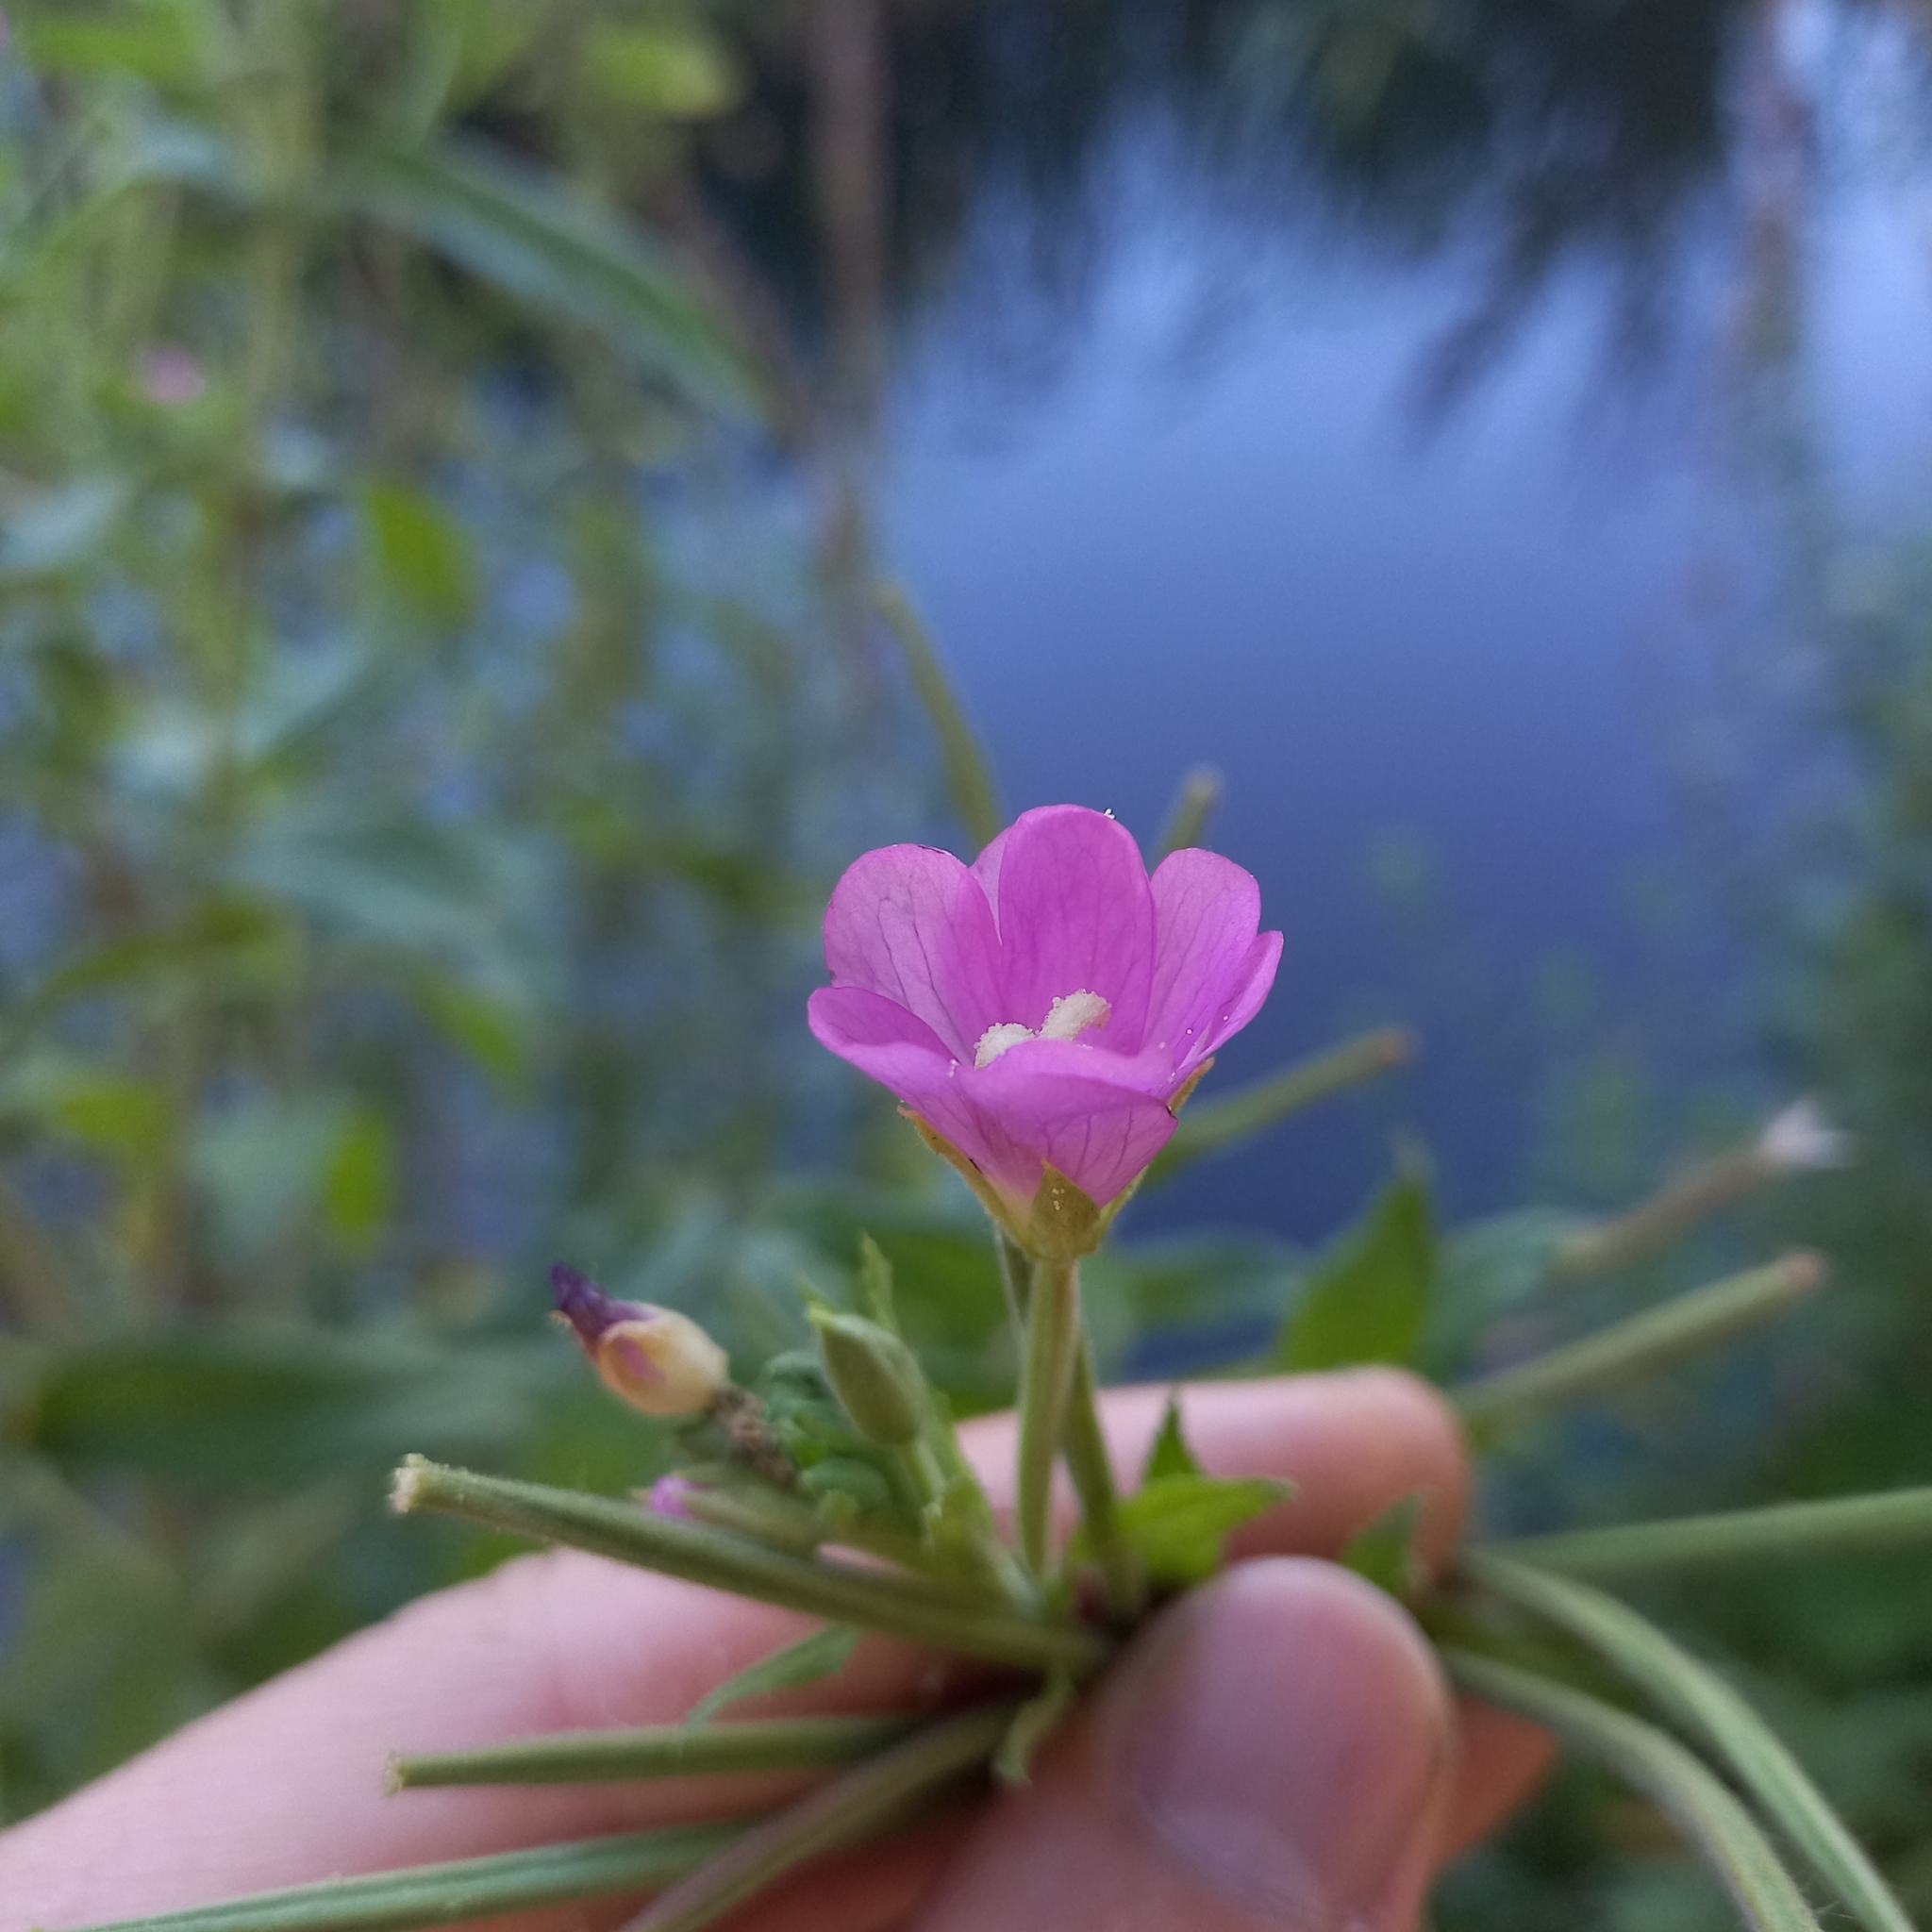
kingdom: Plantae
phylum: Tracheophyta
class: Magnoliopsida
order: Myrtales
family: Onagraceae
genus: Epilobium
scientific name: Epilobium hirsutum
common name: Great willowherb
